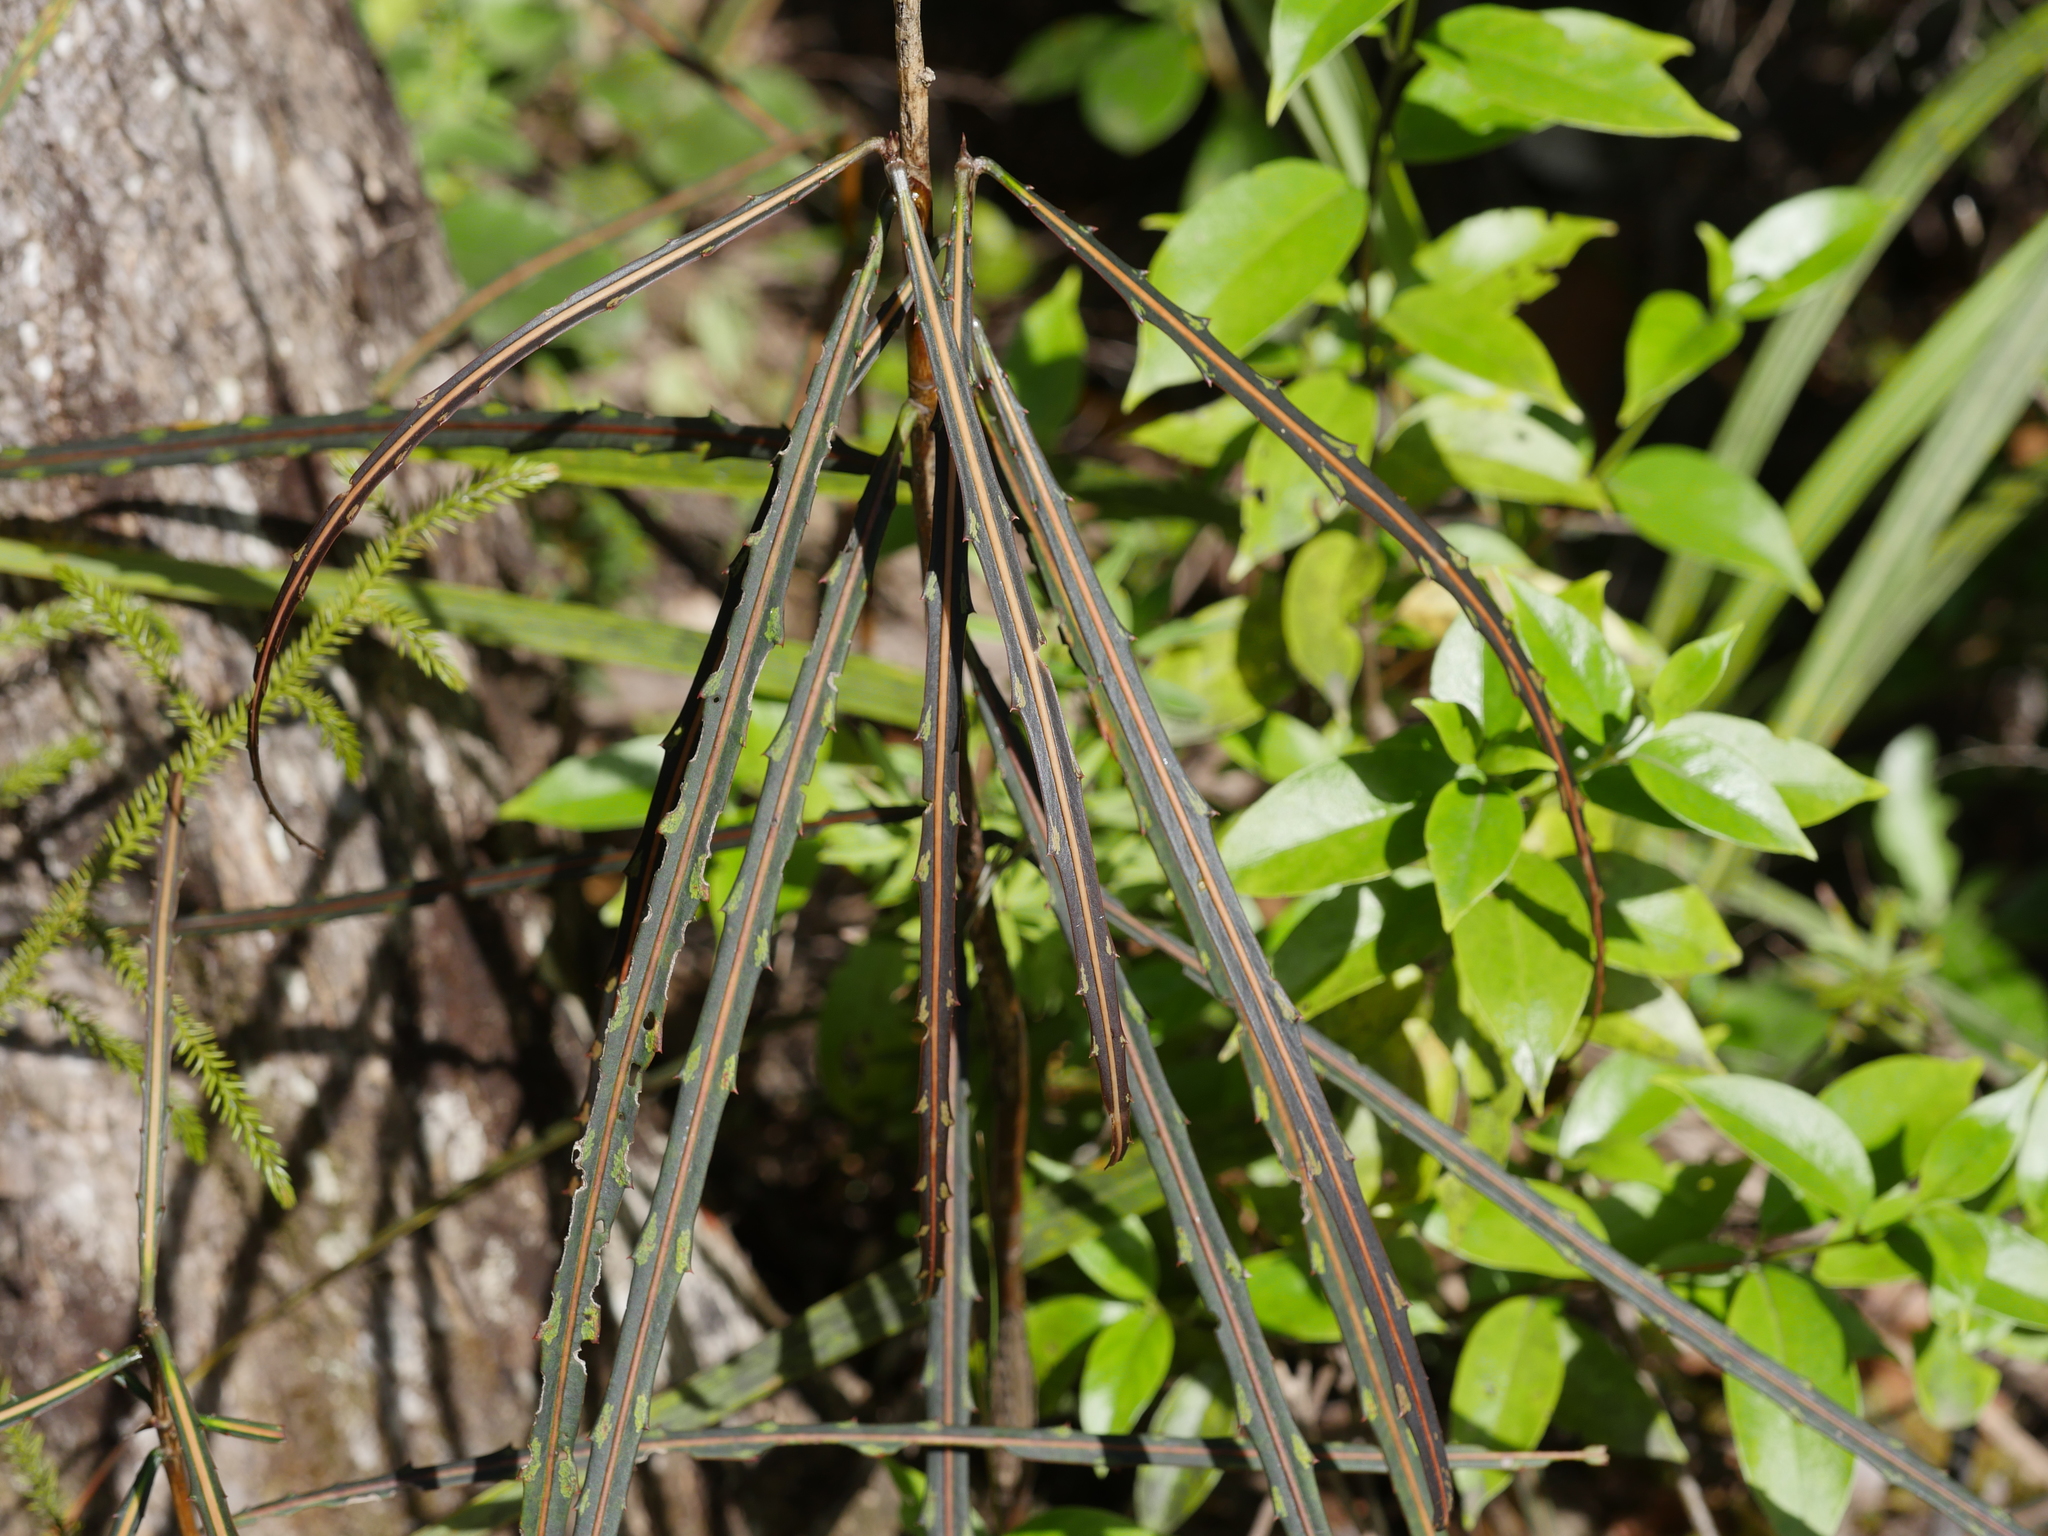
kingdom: Plantae
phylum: Tracheophyta
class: Magnoliopsida
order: Apiales
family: Araliaceae
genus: Pseudopanax
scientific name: Pseudopanax crassifolius
